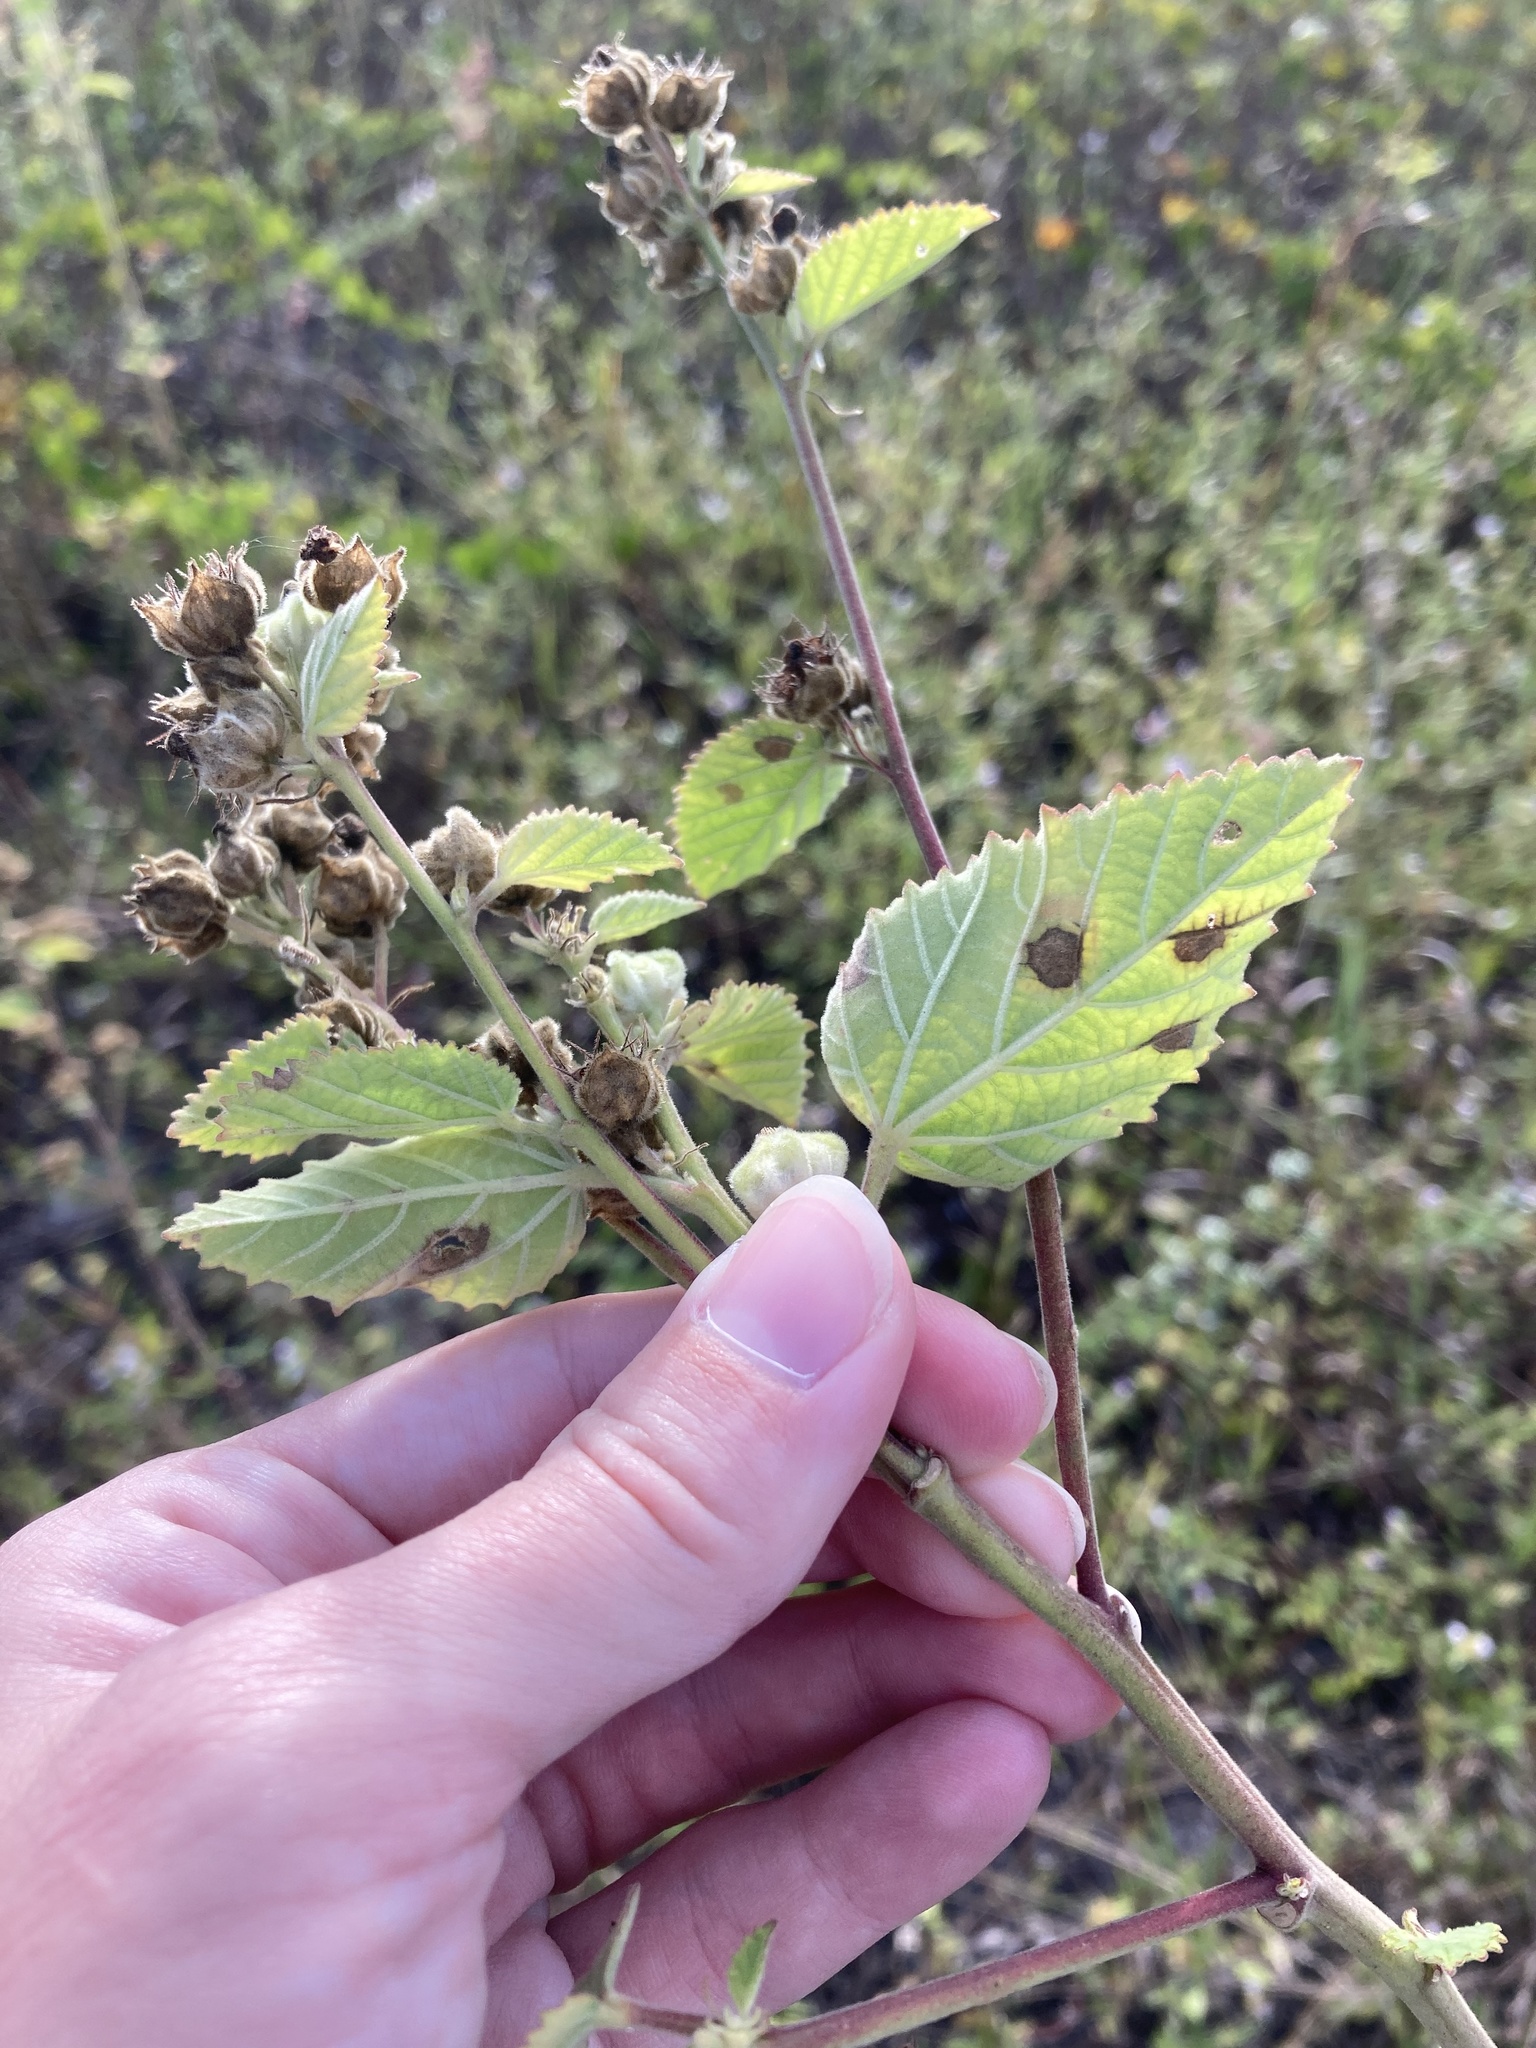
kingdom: Plantae
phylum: Tracheophyta
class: Magnoliopsida
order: Malvales
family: Malvaceae
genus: Sida
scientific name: Sida cordifolia
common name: Ilima
